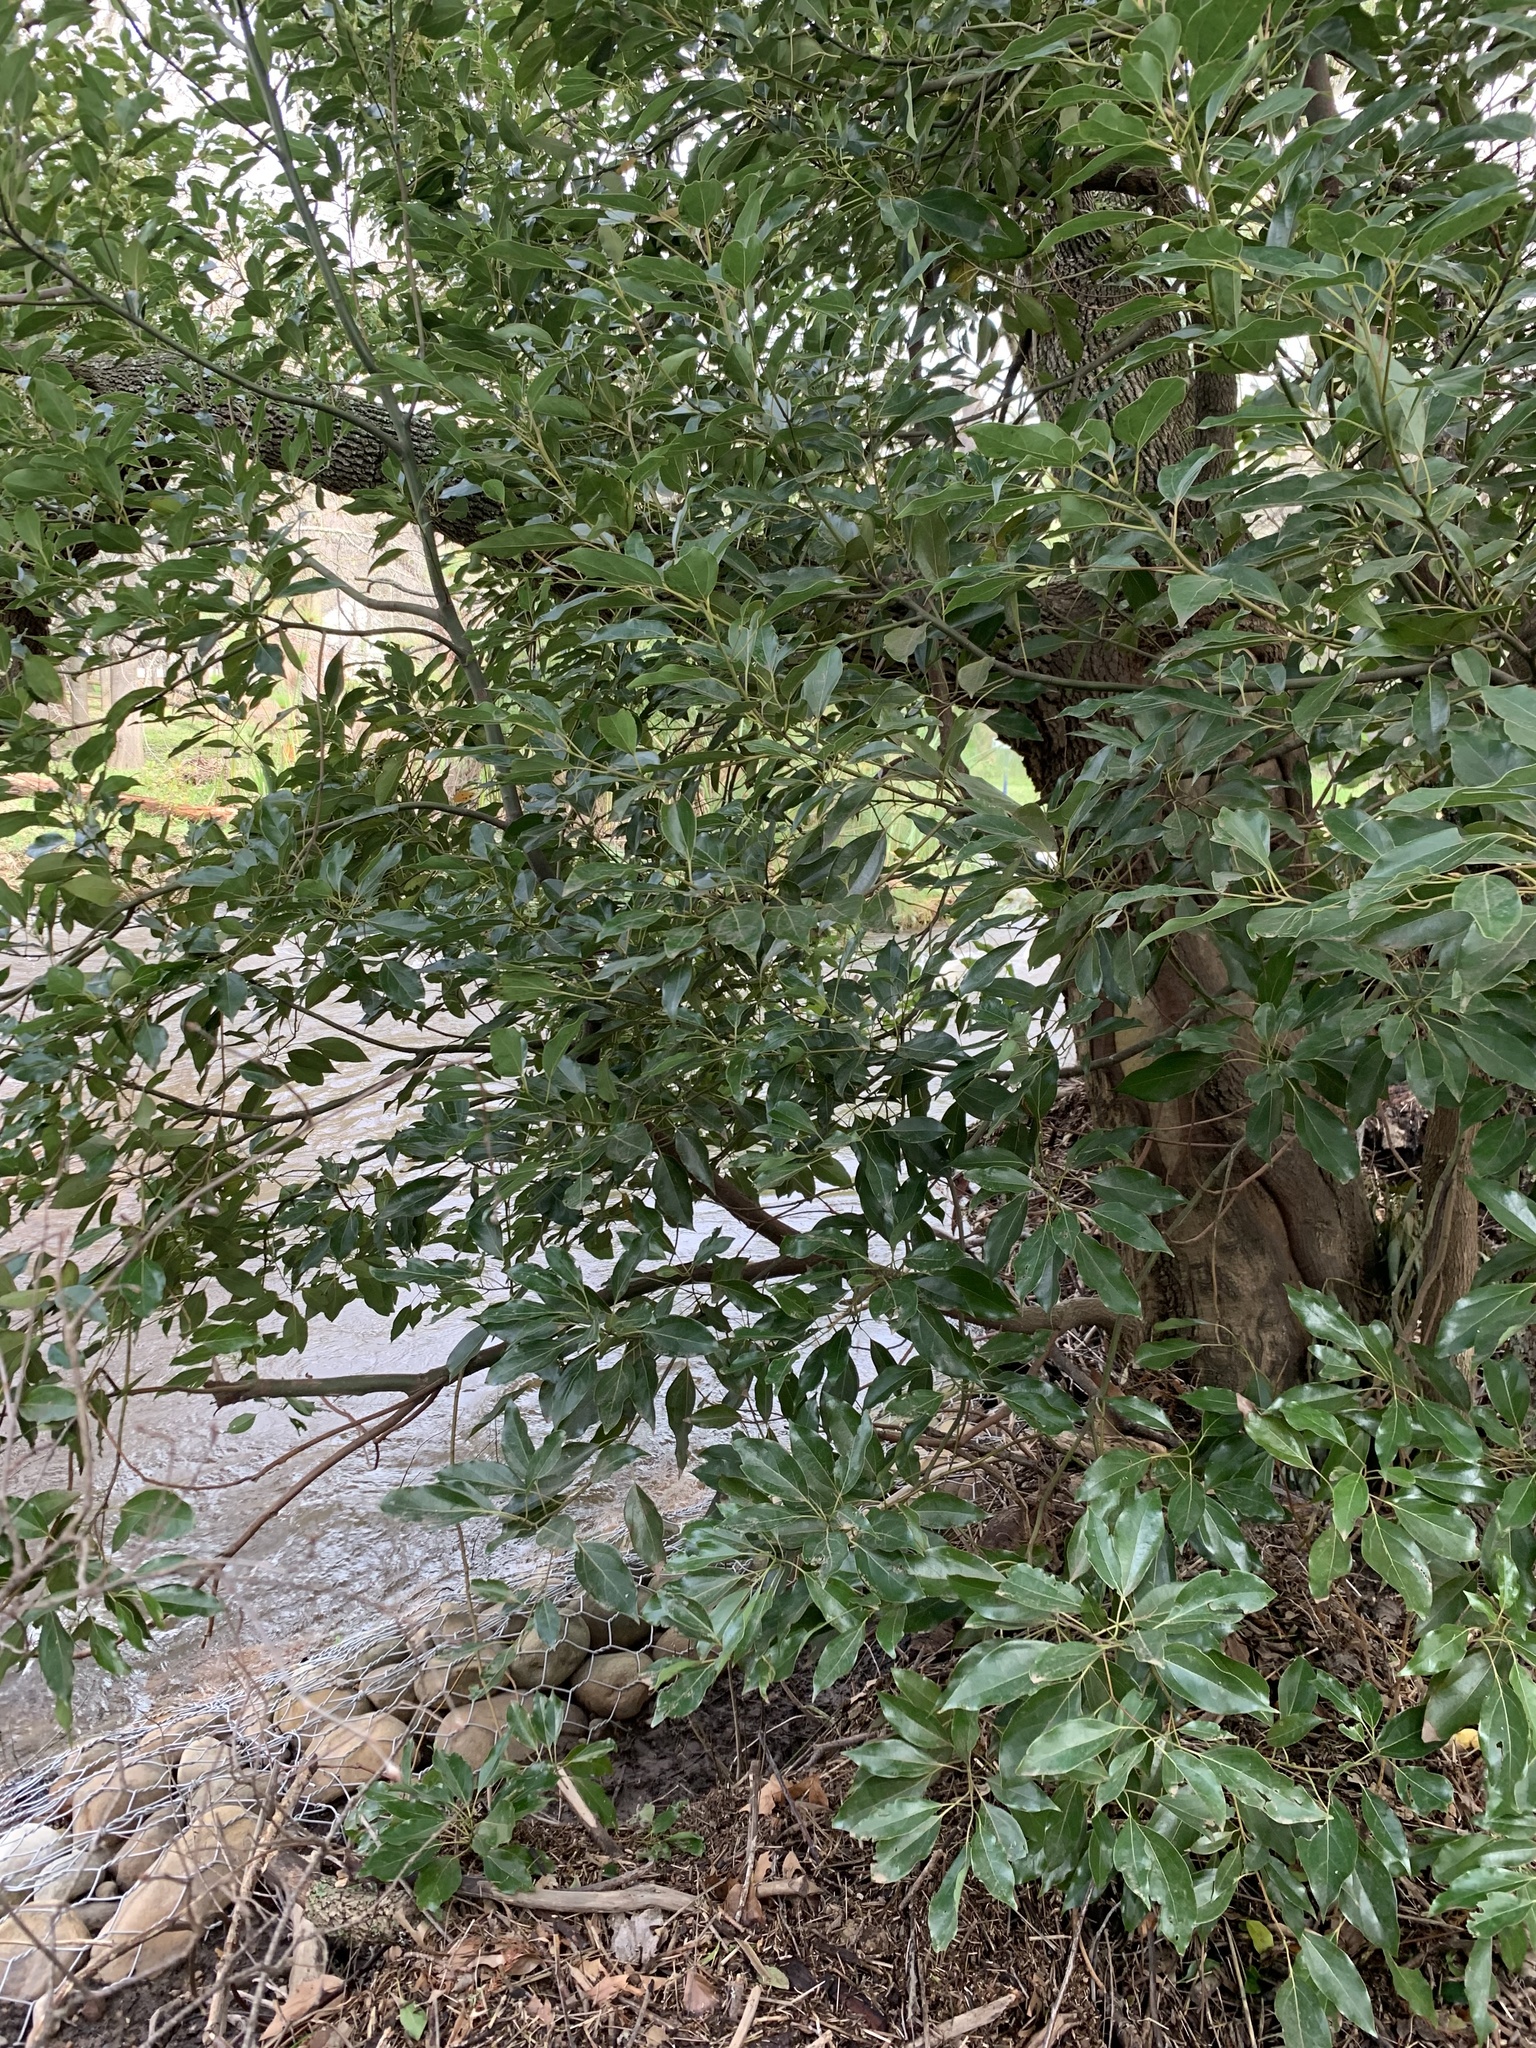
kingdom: Plantae
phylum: Tracheophyta
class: Magnoliopsida
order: Laurales
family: Lauraceae
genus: Cinnamomum
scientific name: Cinnamomum camphora
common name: Camphortree
